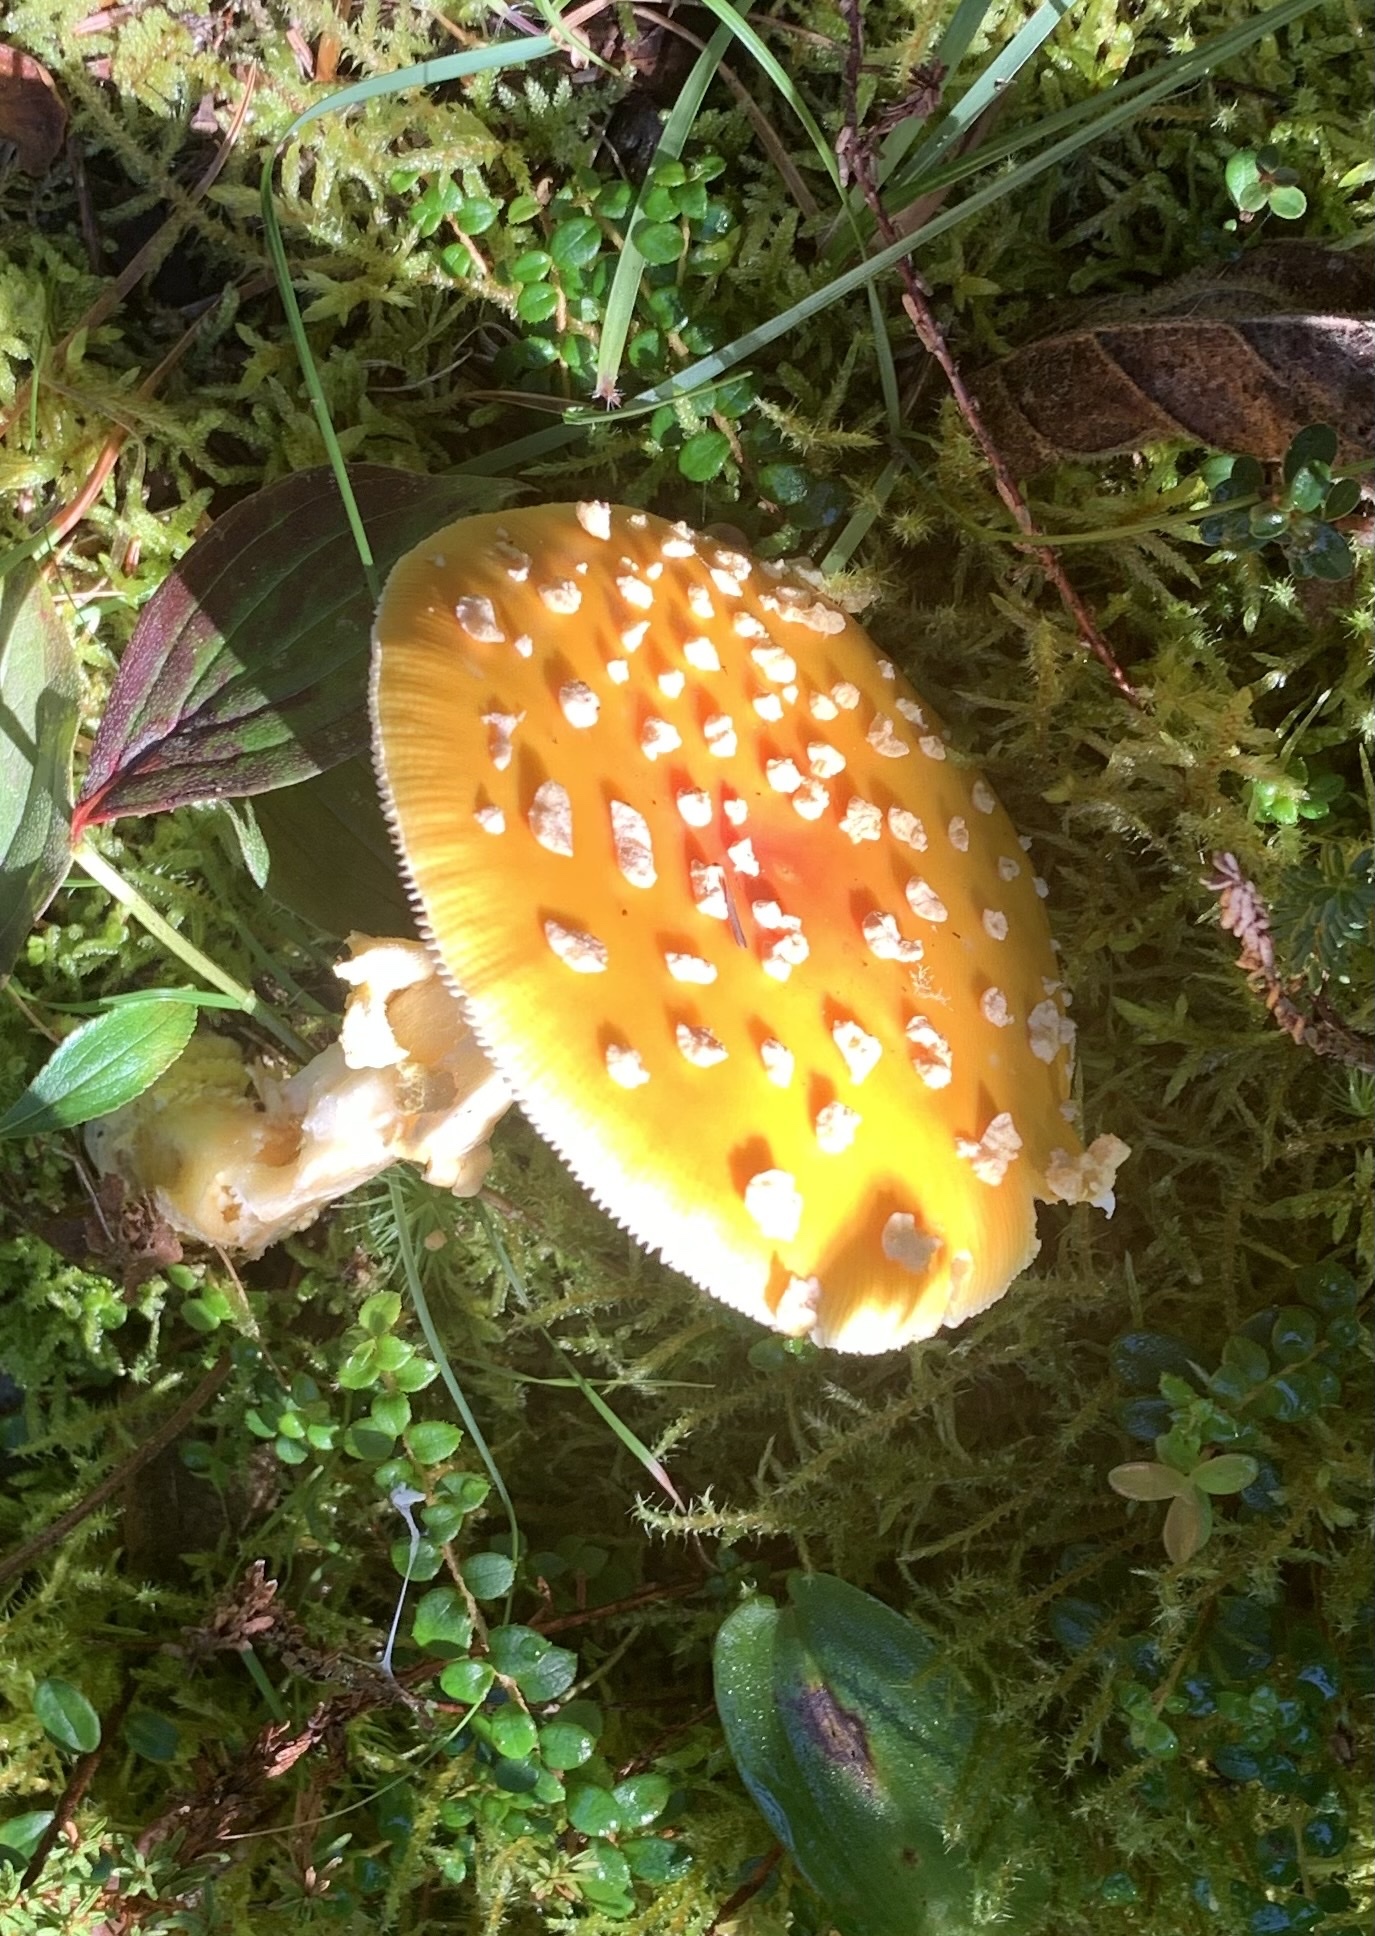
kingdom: Fungi
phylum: Basidiomycota
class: Agaricomycetes
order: Agaricales
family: Amanitaceae
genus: Amanita
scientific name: Amanita muscaria
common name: Fly agaric
